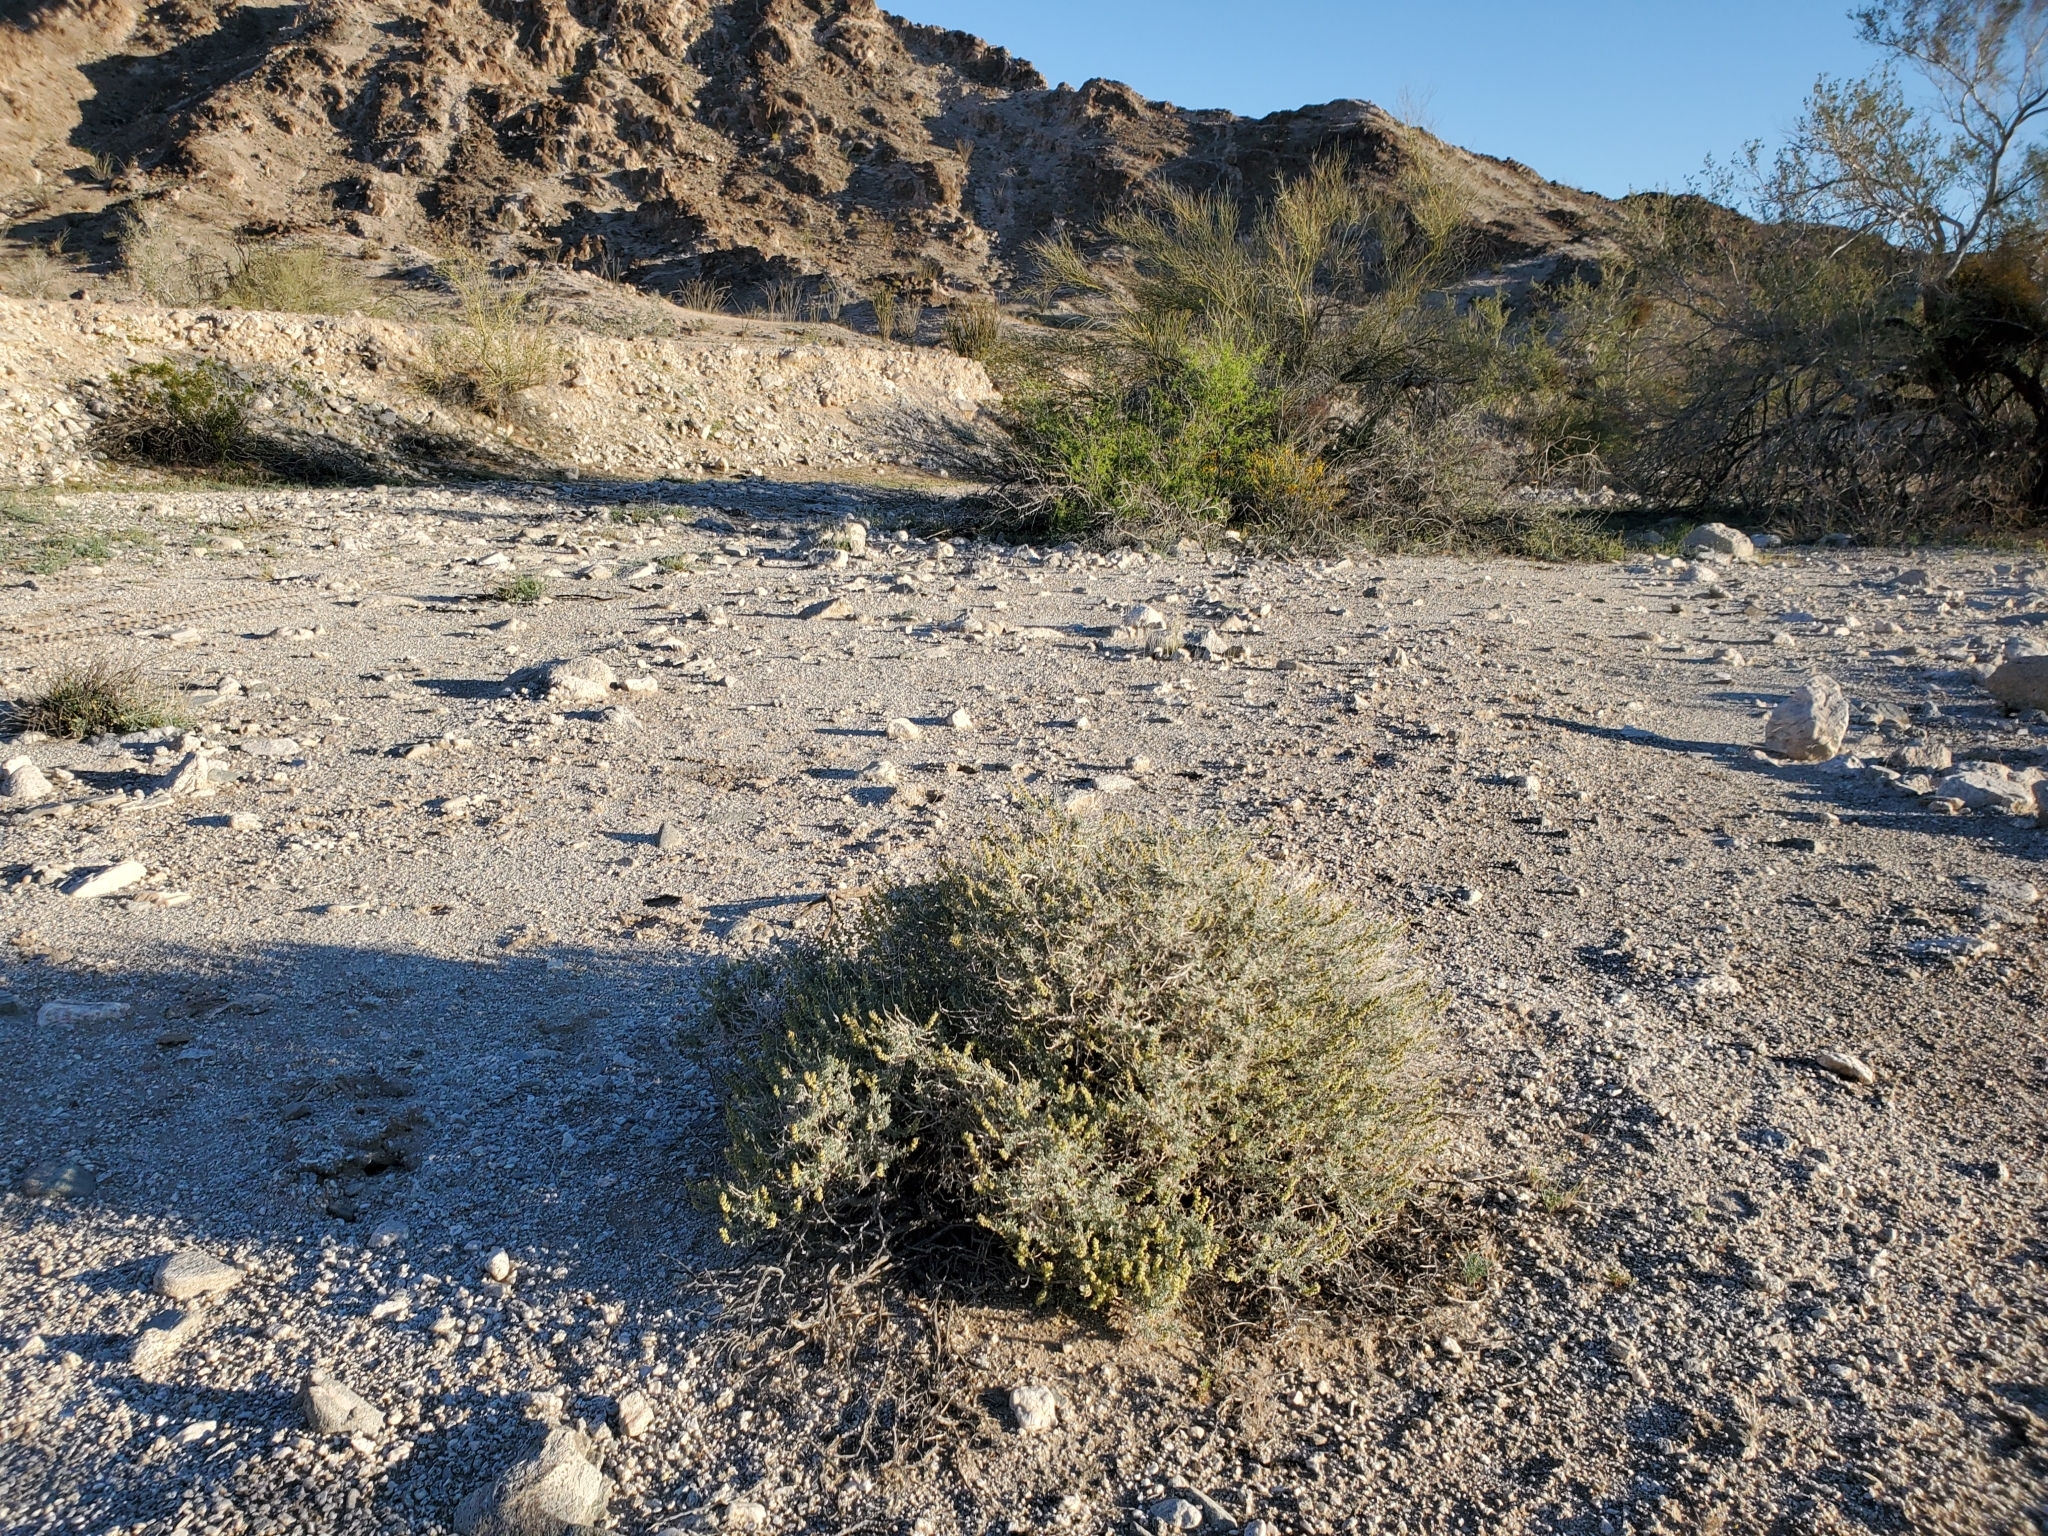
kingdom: Plantae
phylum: Tracheophyta
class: Magnoliopsida
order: Asterales
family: Asteraceae
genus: Ambrosia
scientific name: Ambrosia dumosa
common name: Bur-sage
